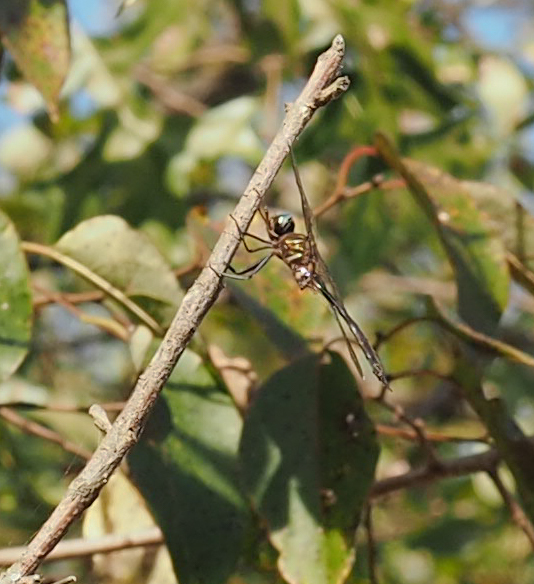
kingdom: Animalia
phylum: Arthropoda
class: Insecta
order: Odonata
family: Corduliidae
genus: Somatochlora
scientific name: Somatochlora filosa
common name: Fine-lined emerald
